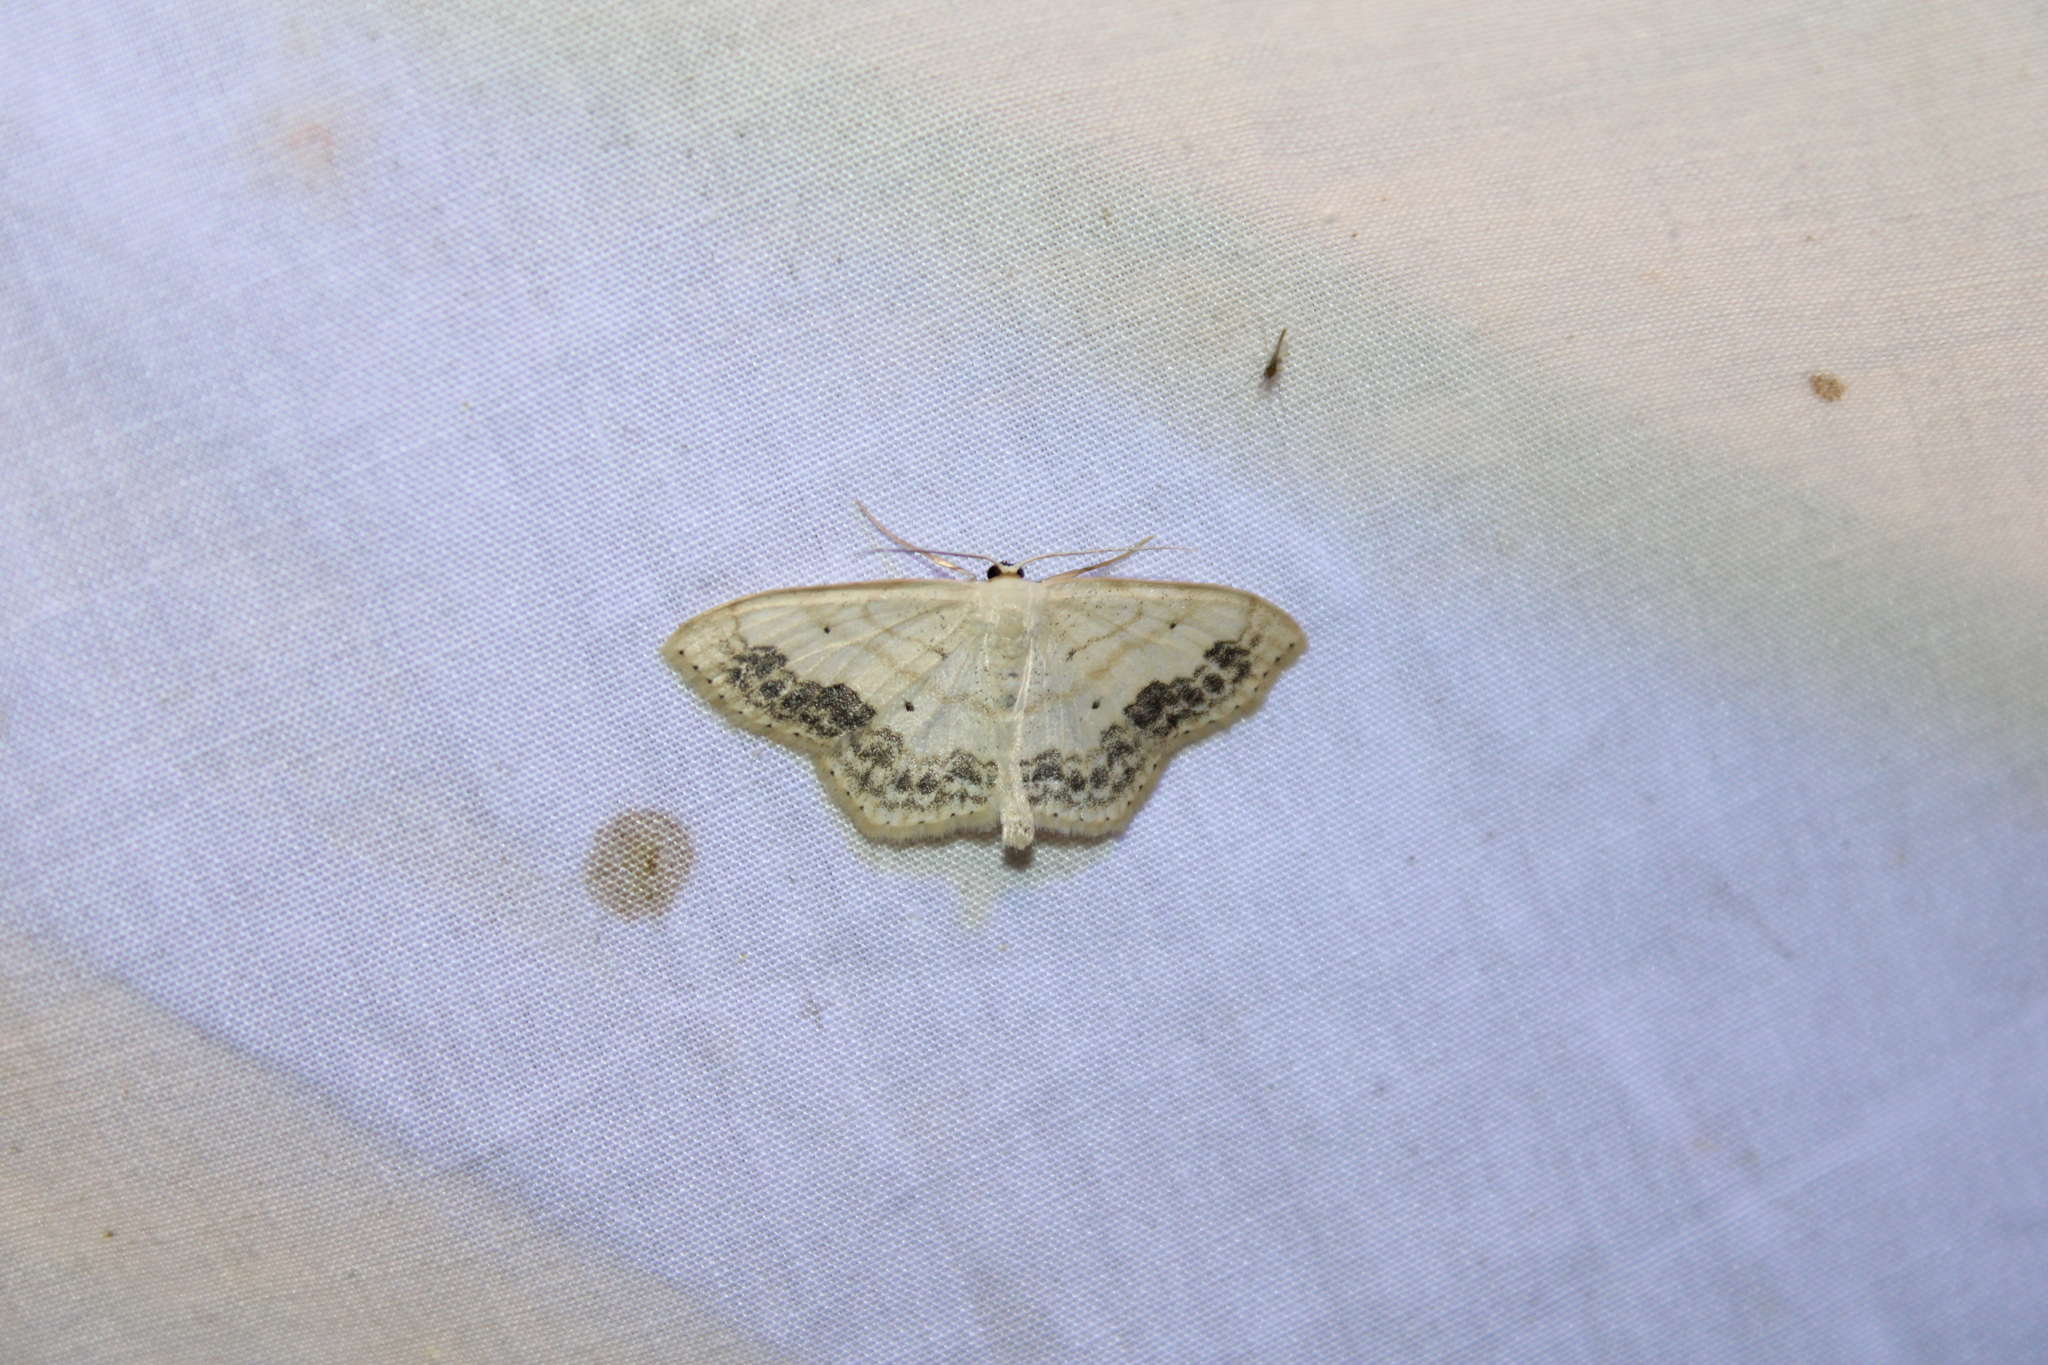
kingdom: Animalia
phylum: Arthropoda
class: Insecta
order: Lepidoptera
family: Geometridae
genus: Scopula
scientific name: Scopula limboundata
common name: Large lace border
